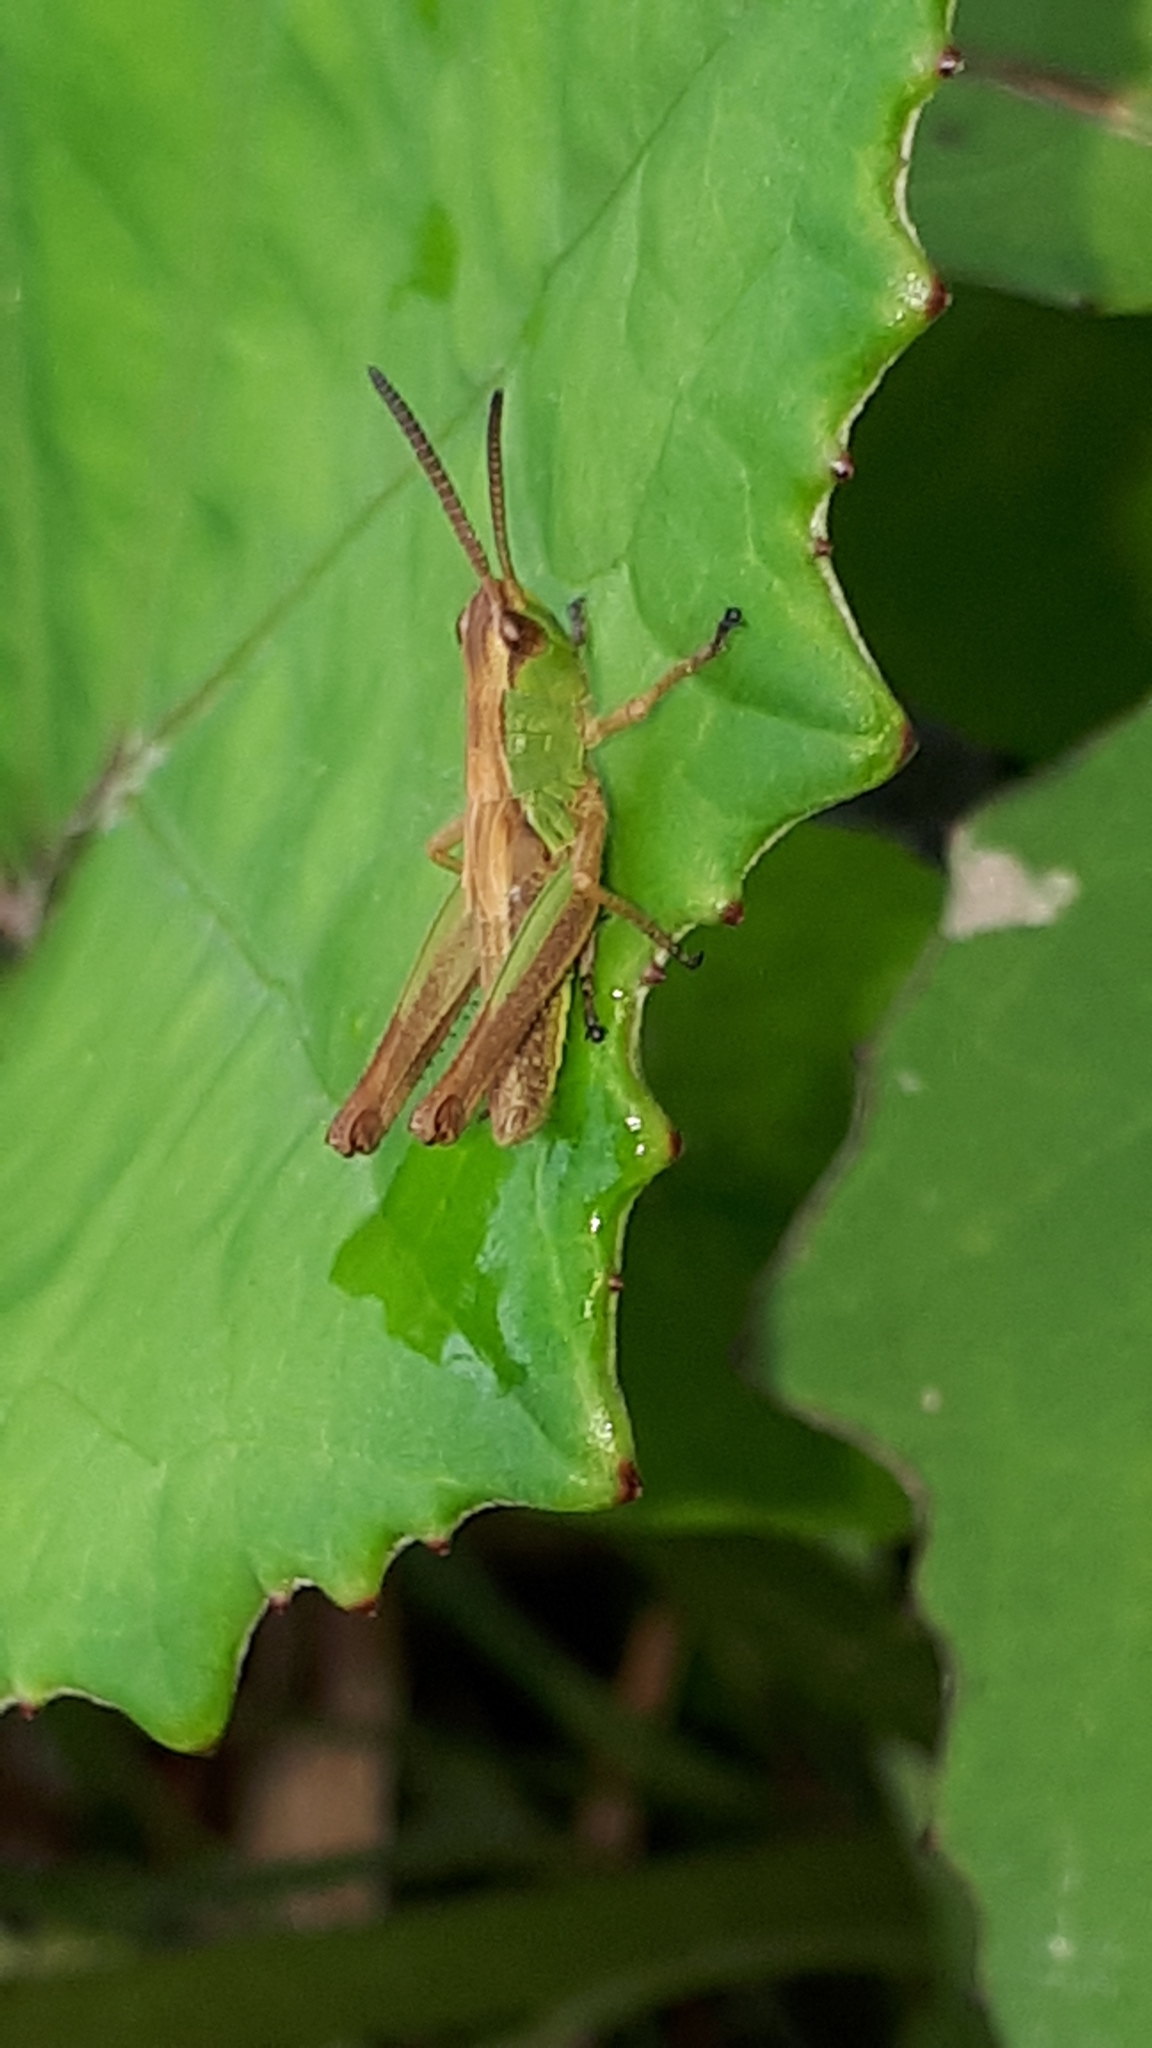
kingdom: Animalia
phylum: Arthropoda
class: Insecta
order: Orthoptera
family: Acrididae
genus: Pseudochorthippus
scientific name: Pseudochorthippus parallelus
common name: Meadow grasshopper
